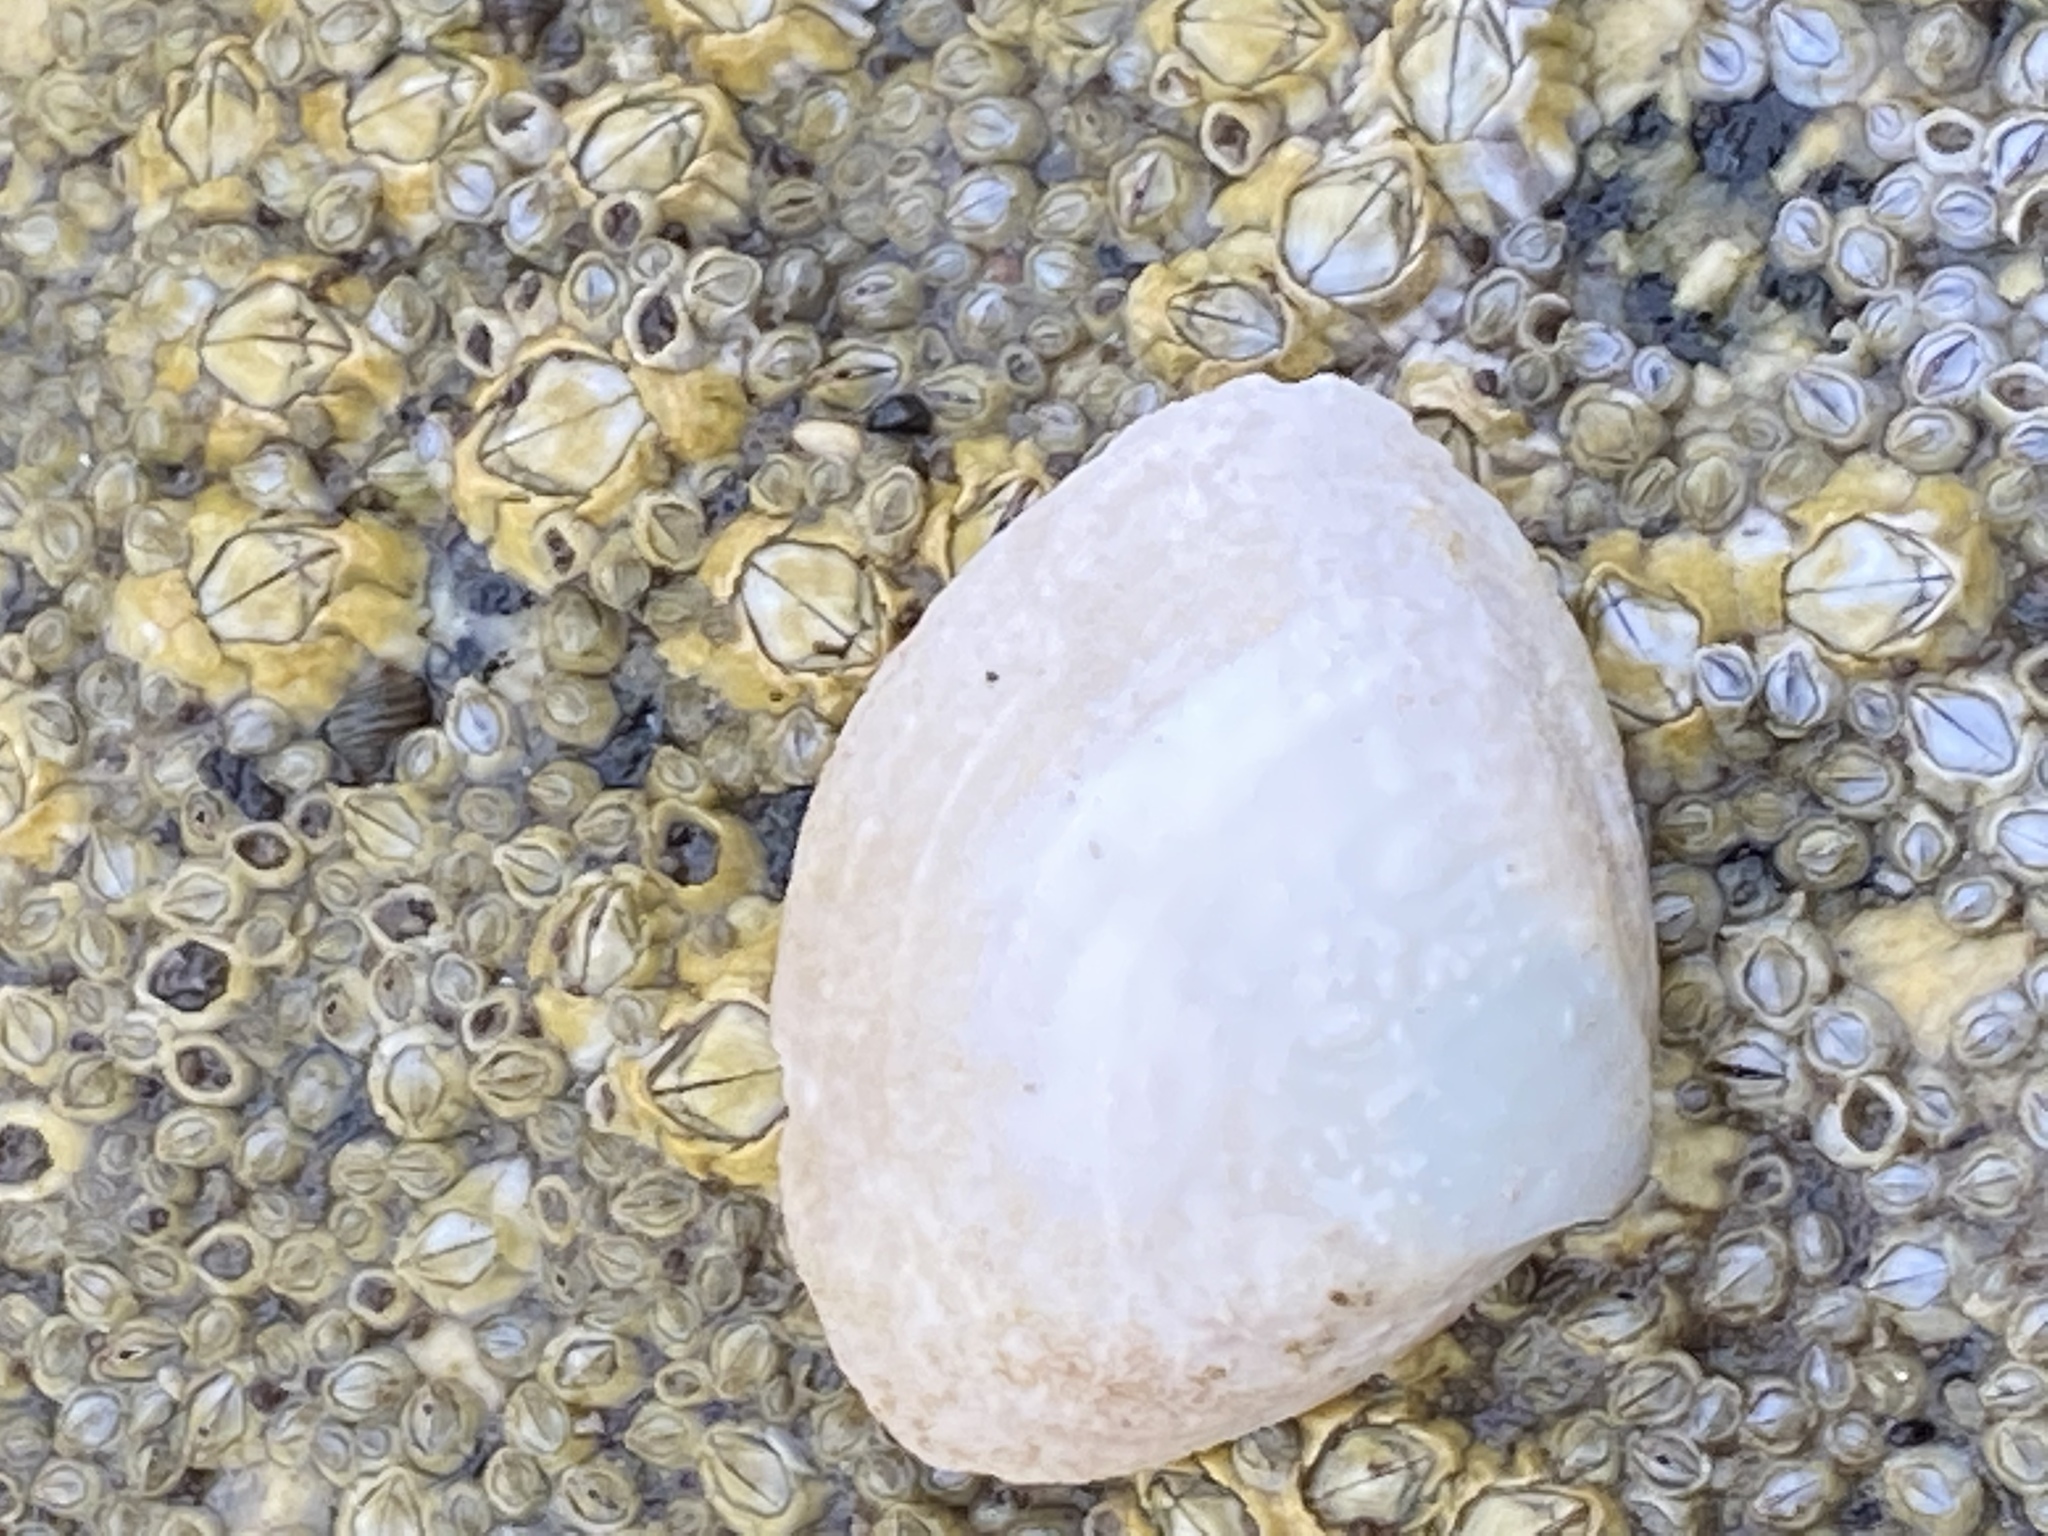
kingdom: Animalia
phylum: Mollusca
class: Bivalvia
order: Venerida
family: Mactridae
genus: Spisula
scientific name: Spisula solidissima
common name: Atlantic surf clam
